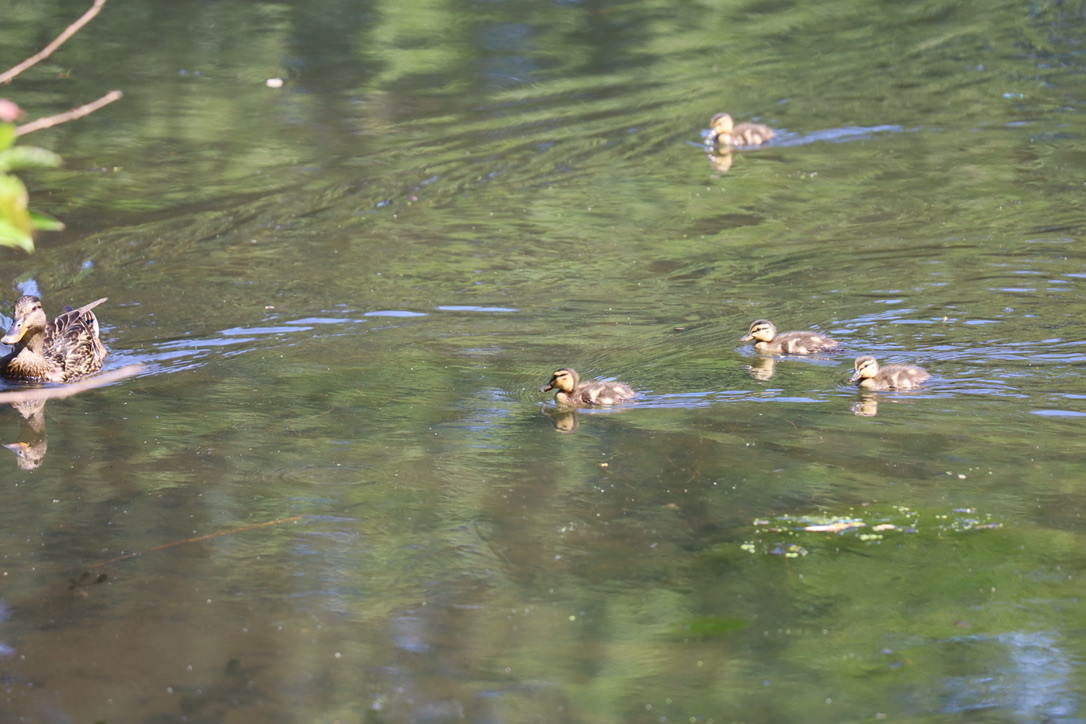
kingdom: Animalia
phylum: Chordata
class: Aves
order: Anseriformes
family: Anatidae
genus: Anas
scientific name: Anas platyrhynchos
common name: Mallard
